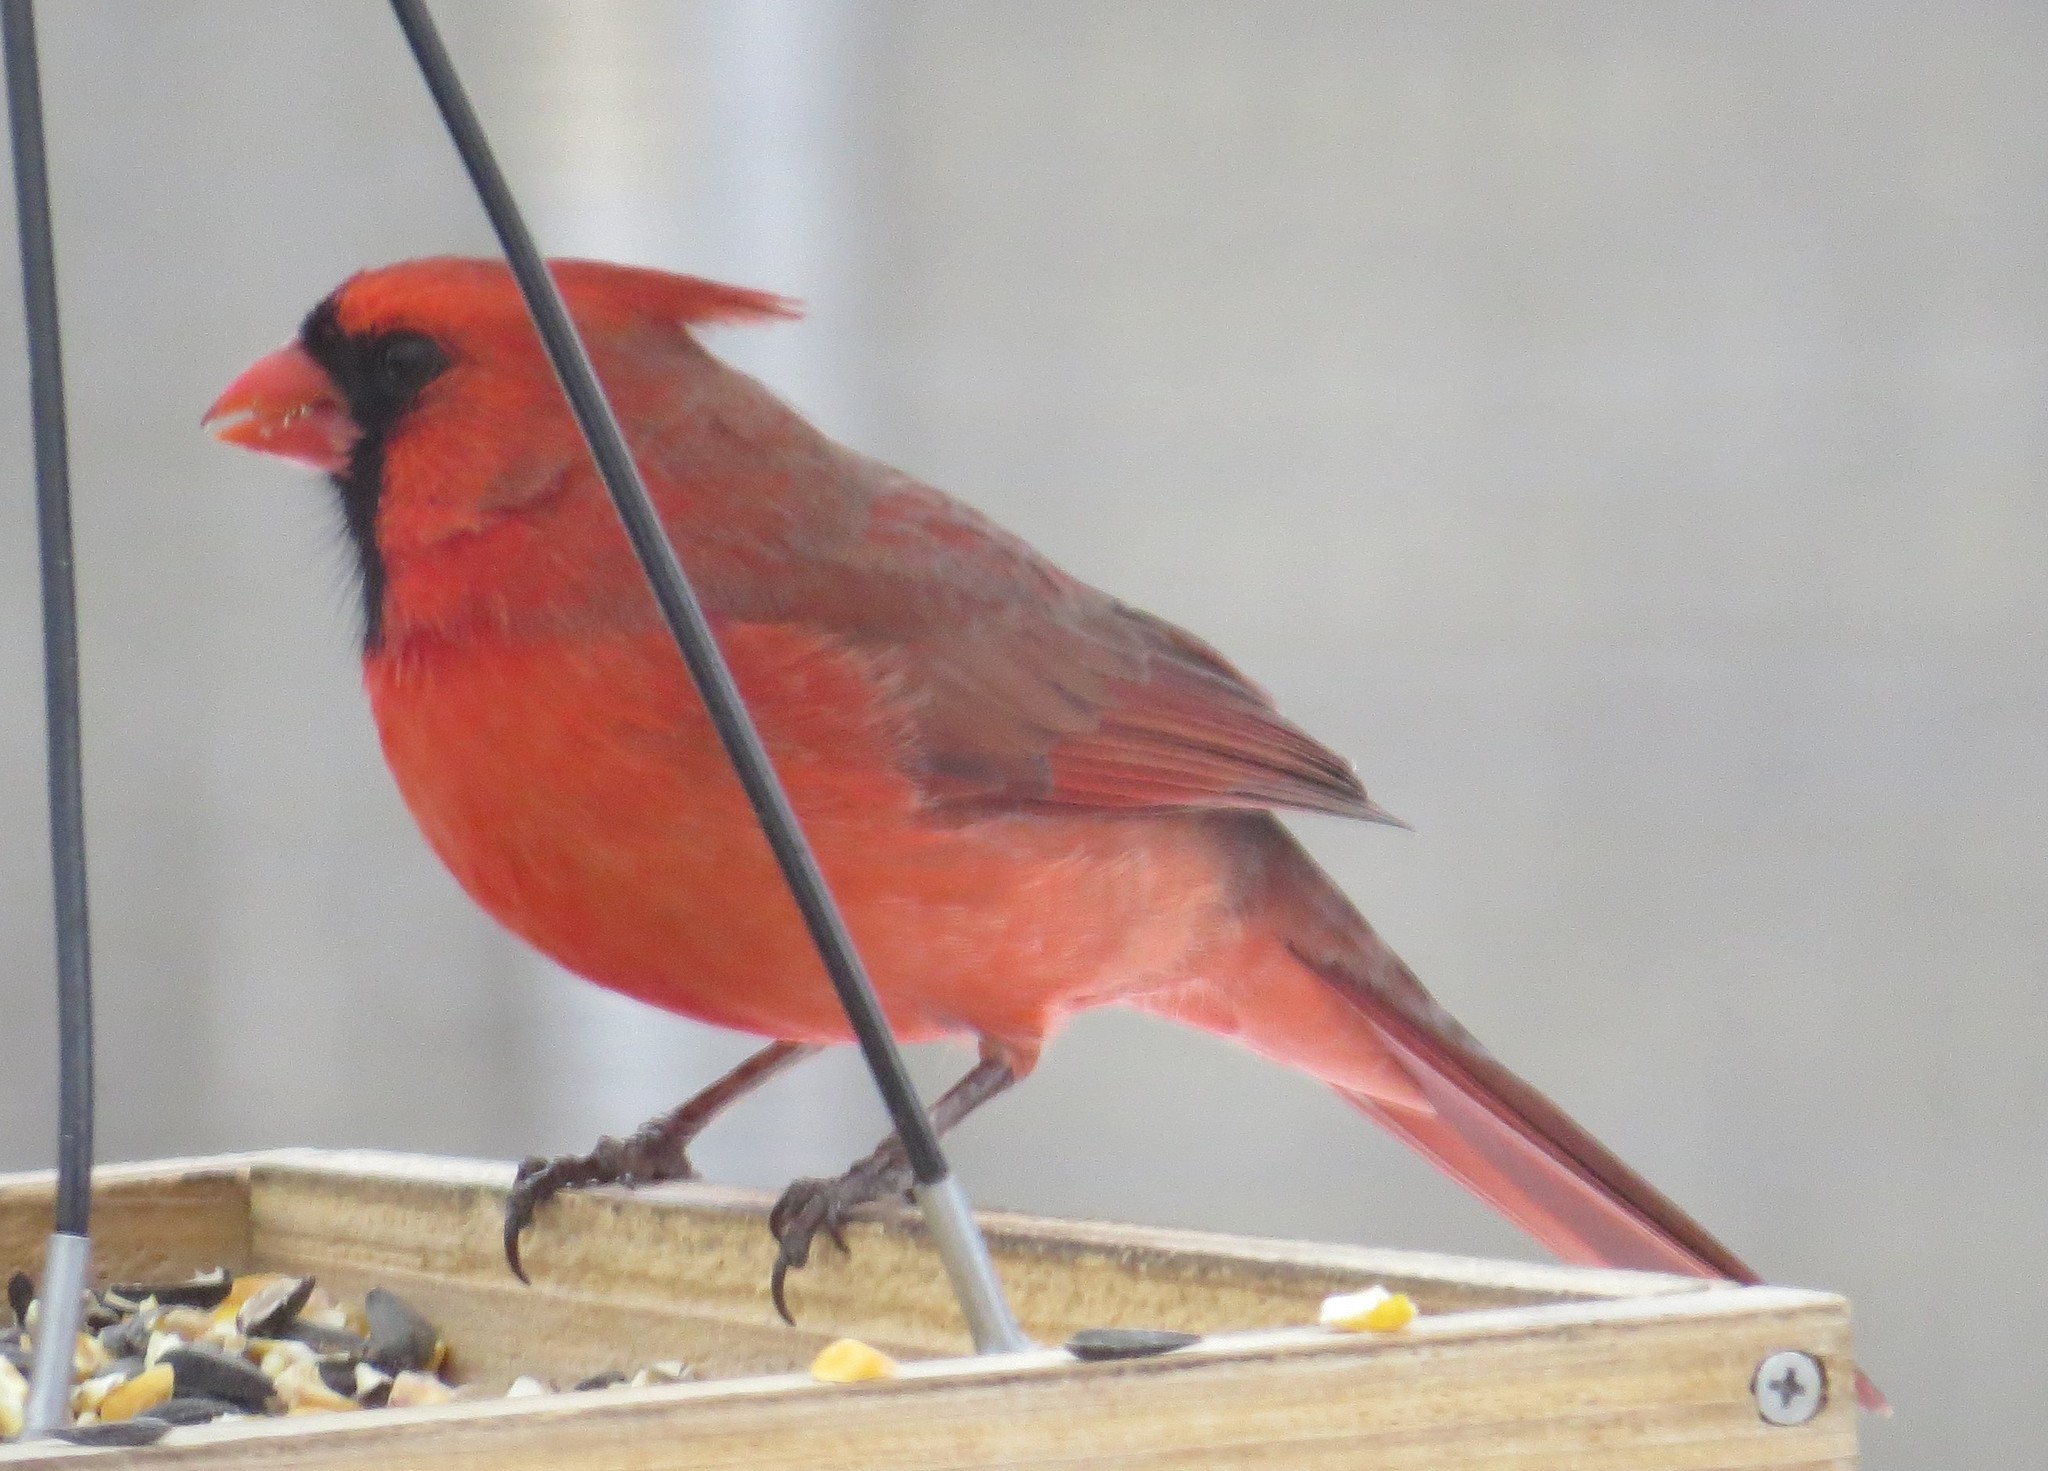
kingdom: Animalia
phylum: Chordata
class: Aves
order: Passeriformes
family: Cardinalidae
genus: Cardinalis
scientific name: Cardinalis cardinalis
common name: Northern cardinal
